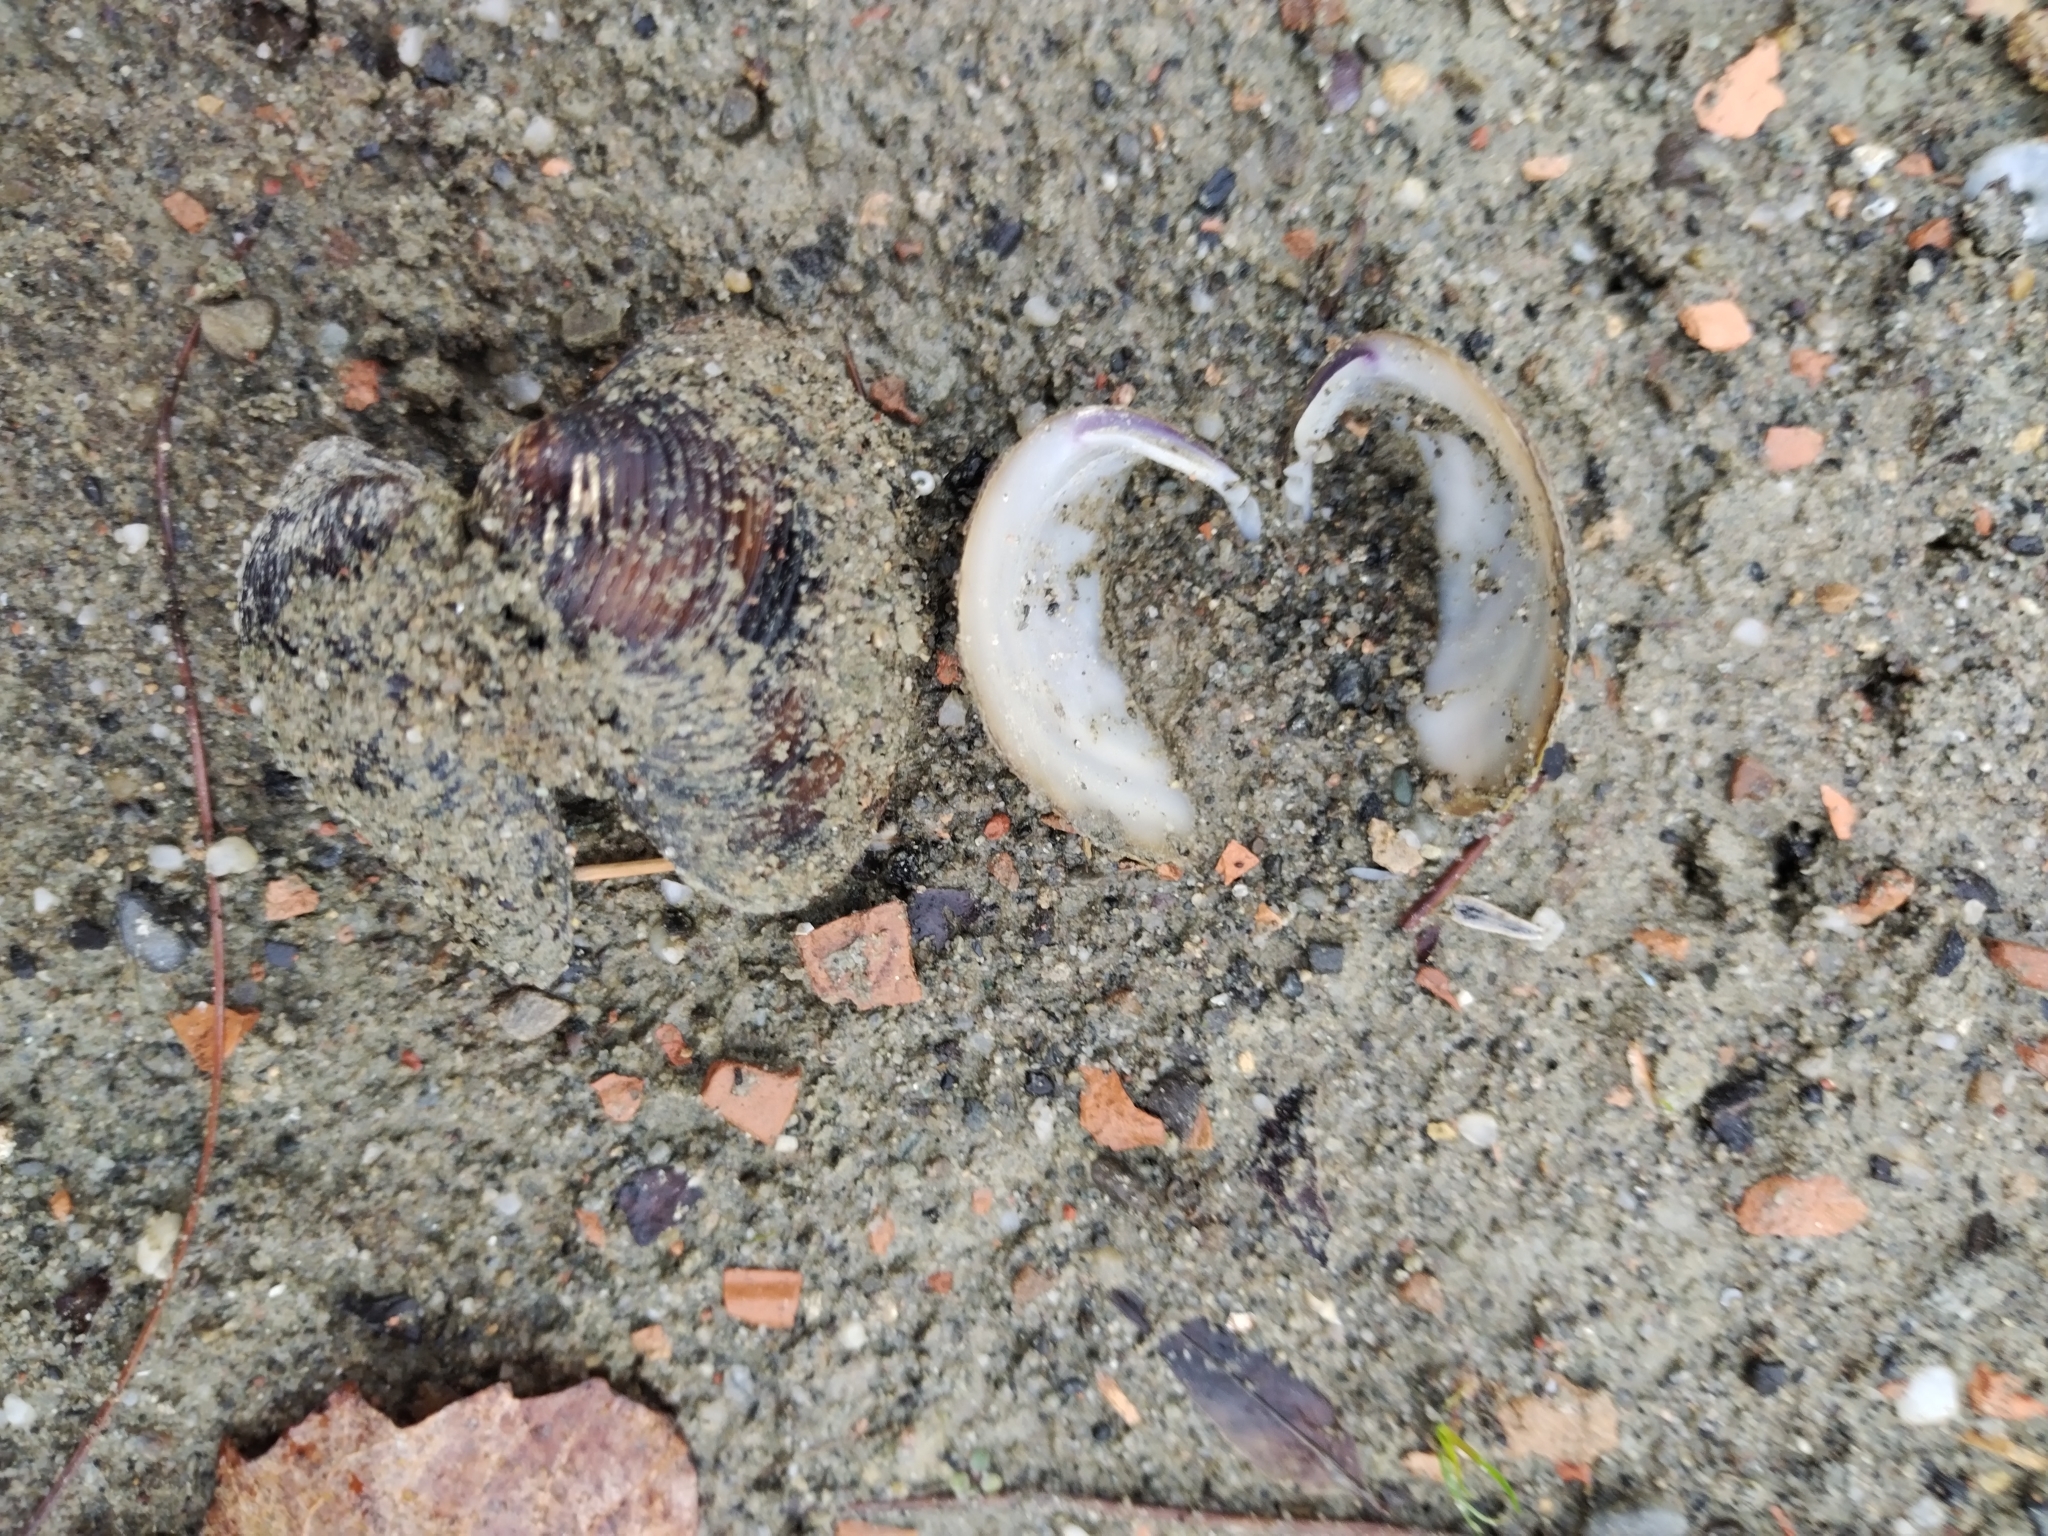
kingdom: Animalia
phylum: Mollusca
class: Bivalvia
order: Venerida
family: Cyrenidae
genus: Corbicula
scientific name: Corbicula fluminea
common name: Asian clam
